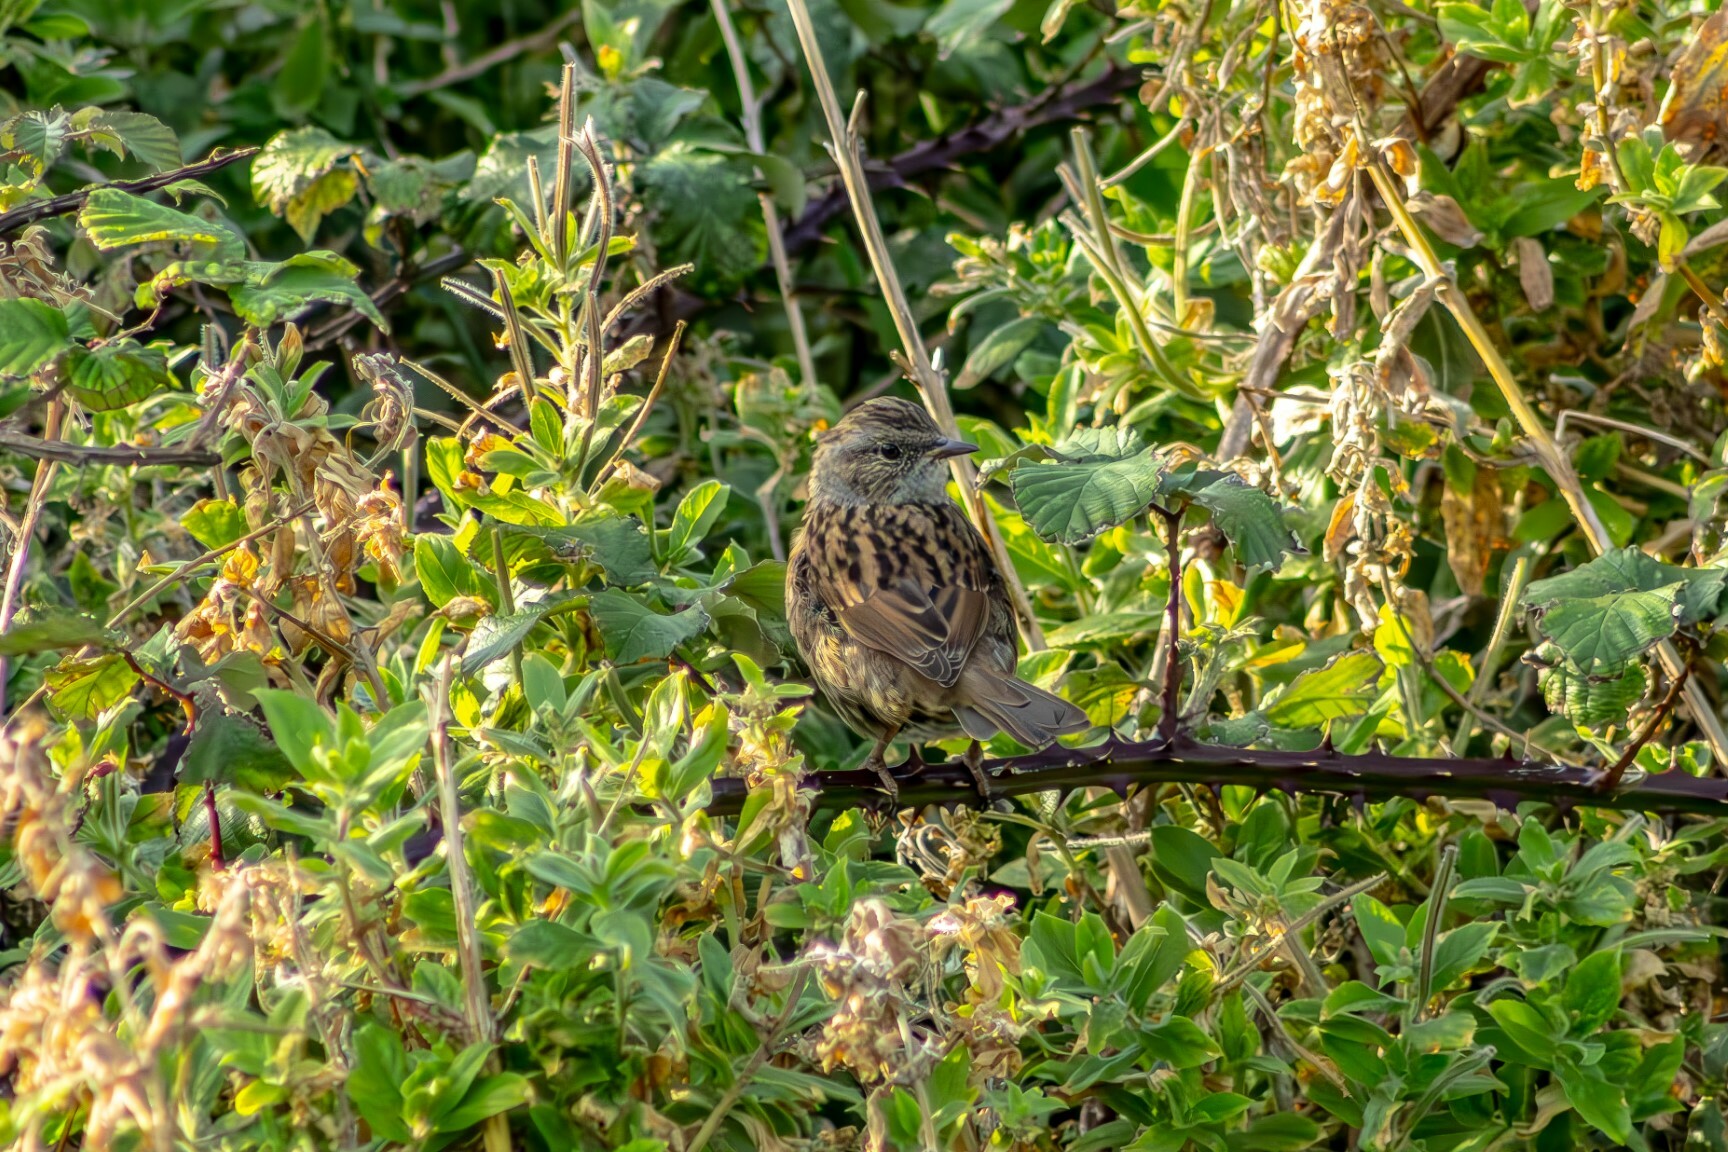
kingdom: Animalia
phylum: Chordata
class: Aves
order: Passeriformes
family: Prunellidae
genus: Prunella
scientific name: Prunella modularis
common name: Dunnock
